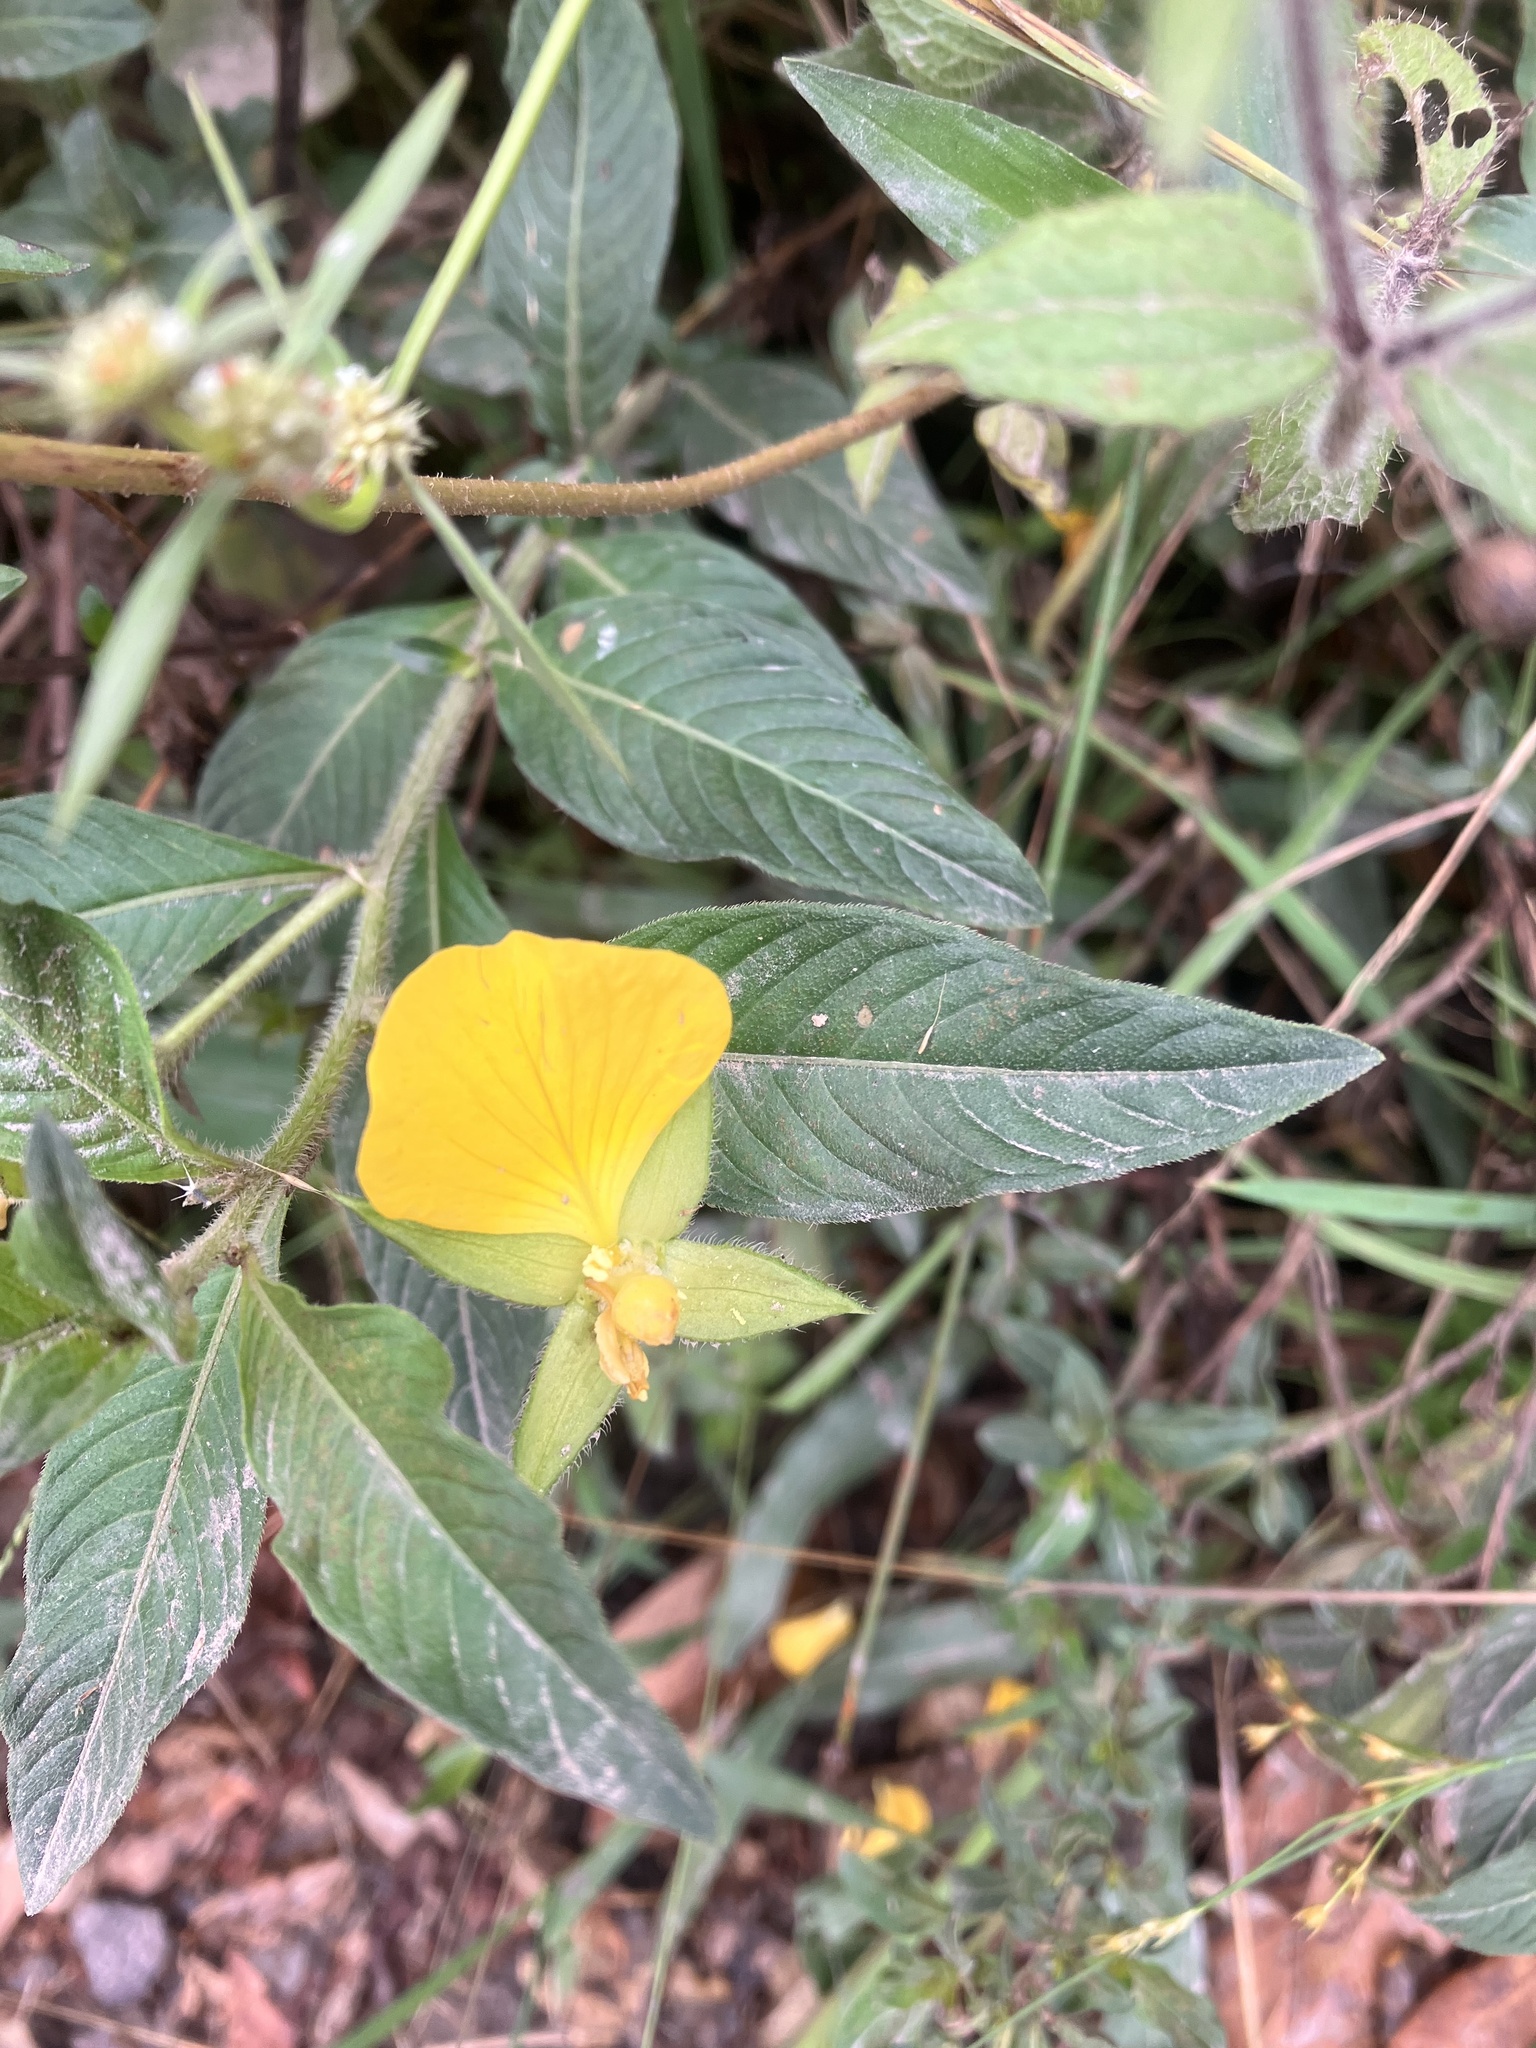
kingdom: Plantae
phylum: Tracheophyta
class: Magnoliopsida
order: Myrtales
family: Onagraceae
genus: Ludwigia
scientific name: Ludwigia peruviana
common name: Peruvian primrose-willow
